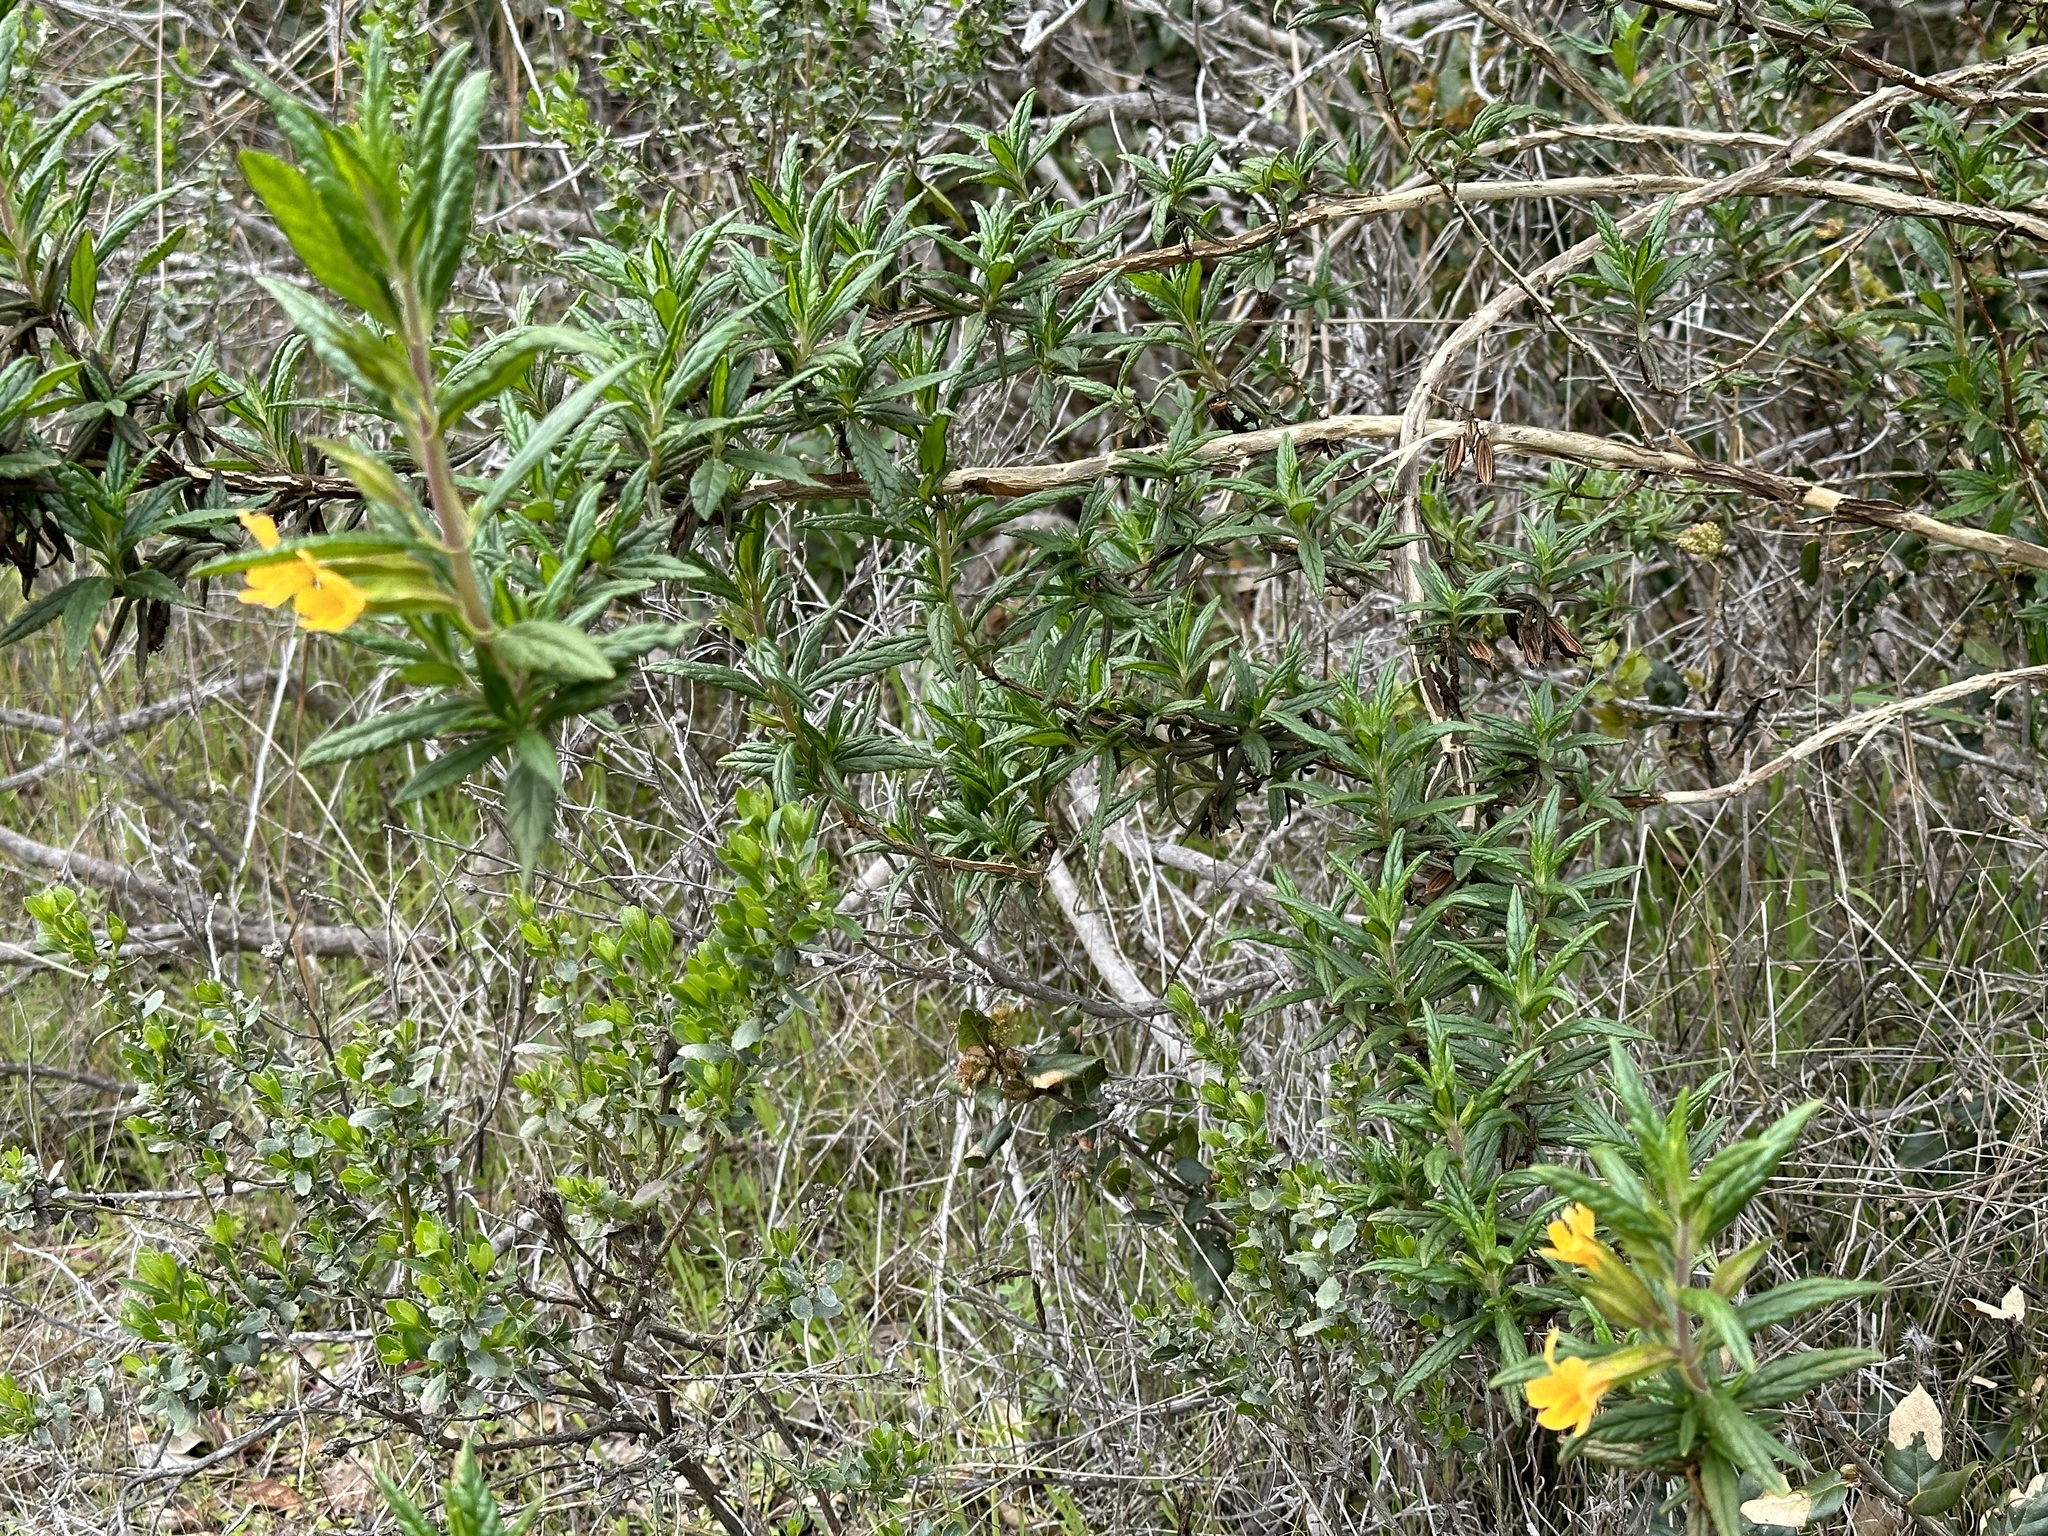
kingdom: Plantae
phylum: Tracheophyta
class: Magnoliopsida
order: Lamiales
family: Phrymaceae
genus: Diplacus
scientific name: Diplacus aurantiacus
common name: Bush monkey-flower
